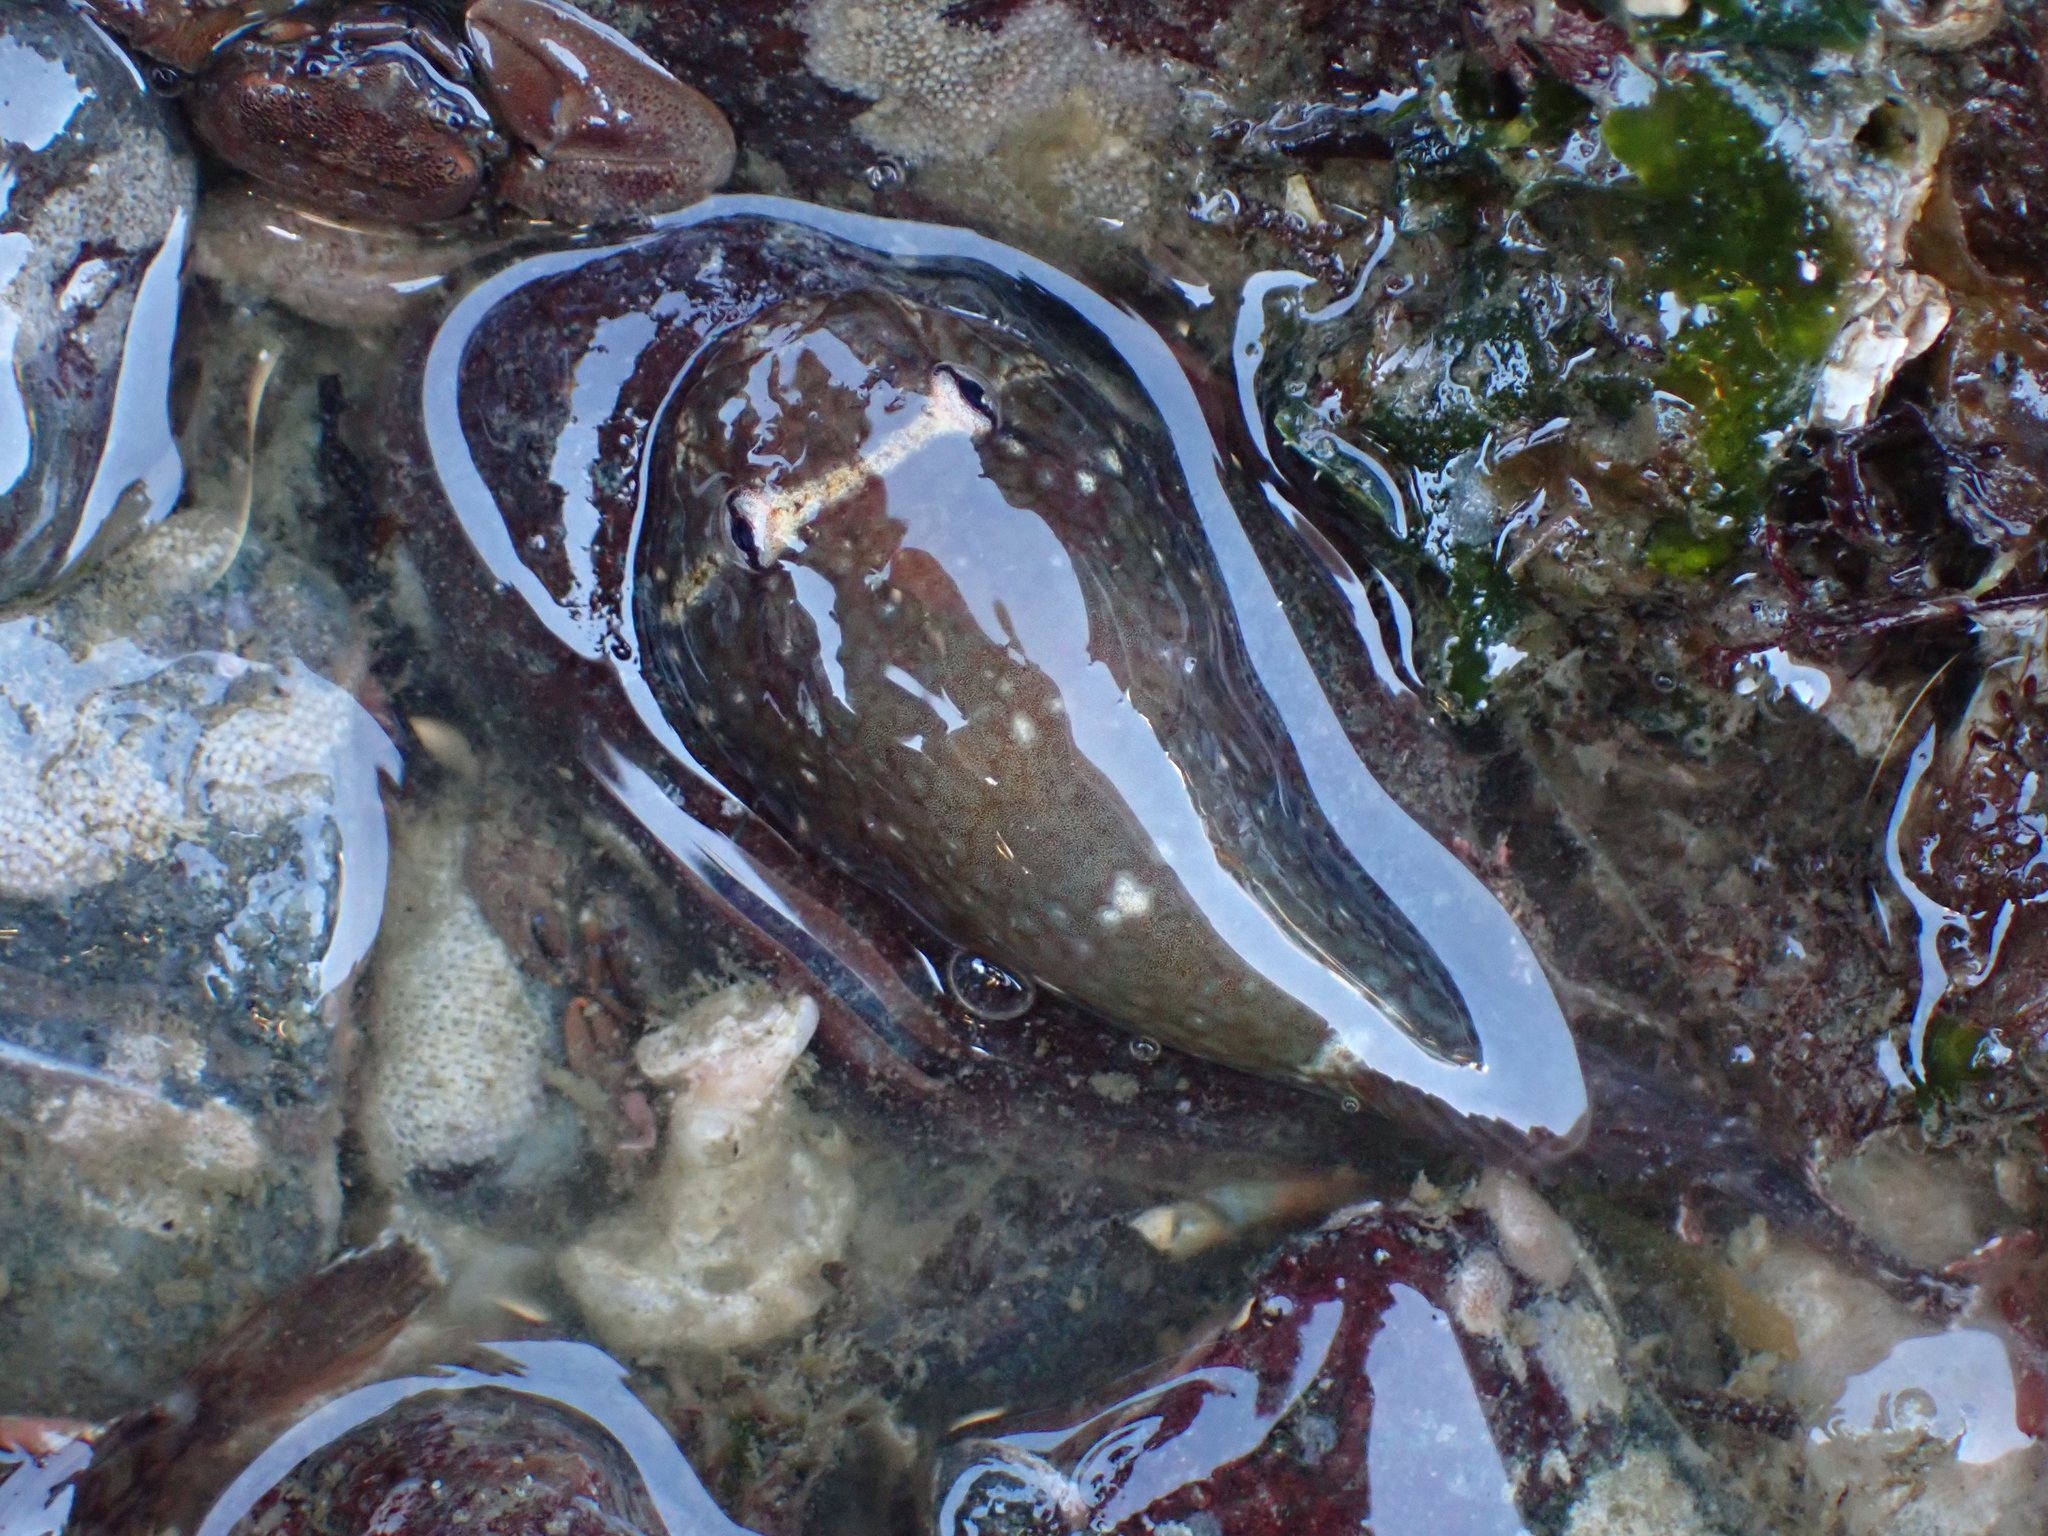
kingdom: Animalia
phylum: Chordata
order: Gobiesociformes
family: Gobiesocidae
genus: Gobiesox
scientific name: Gobiesox maeandricus
